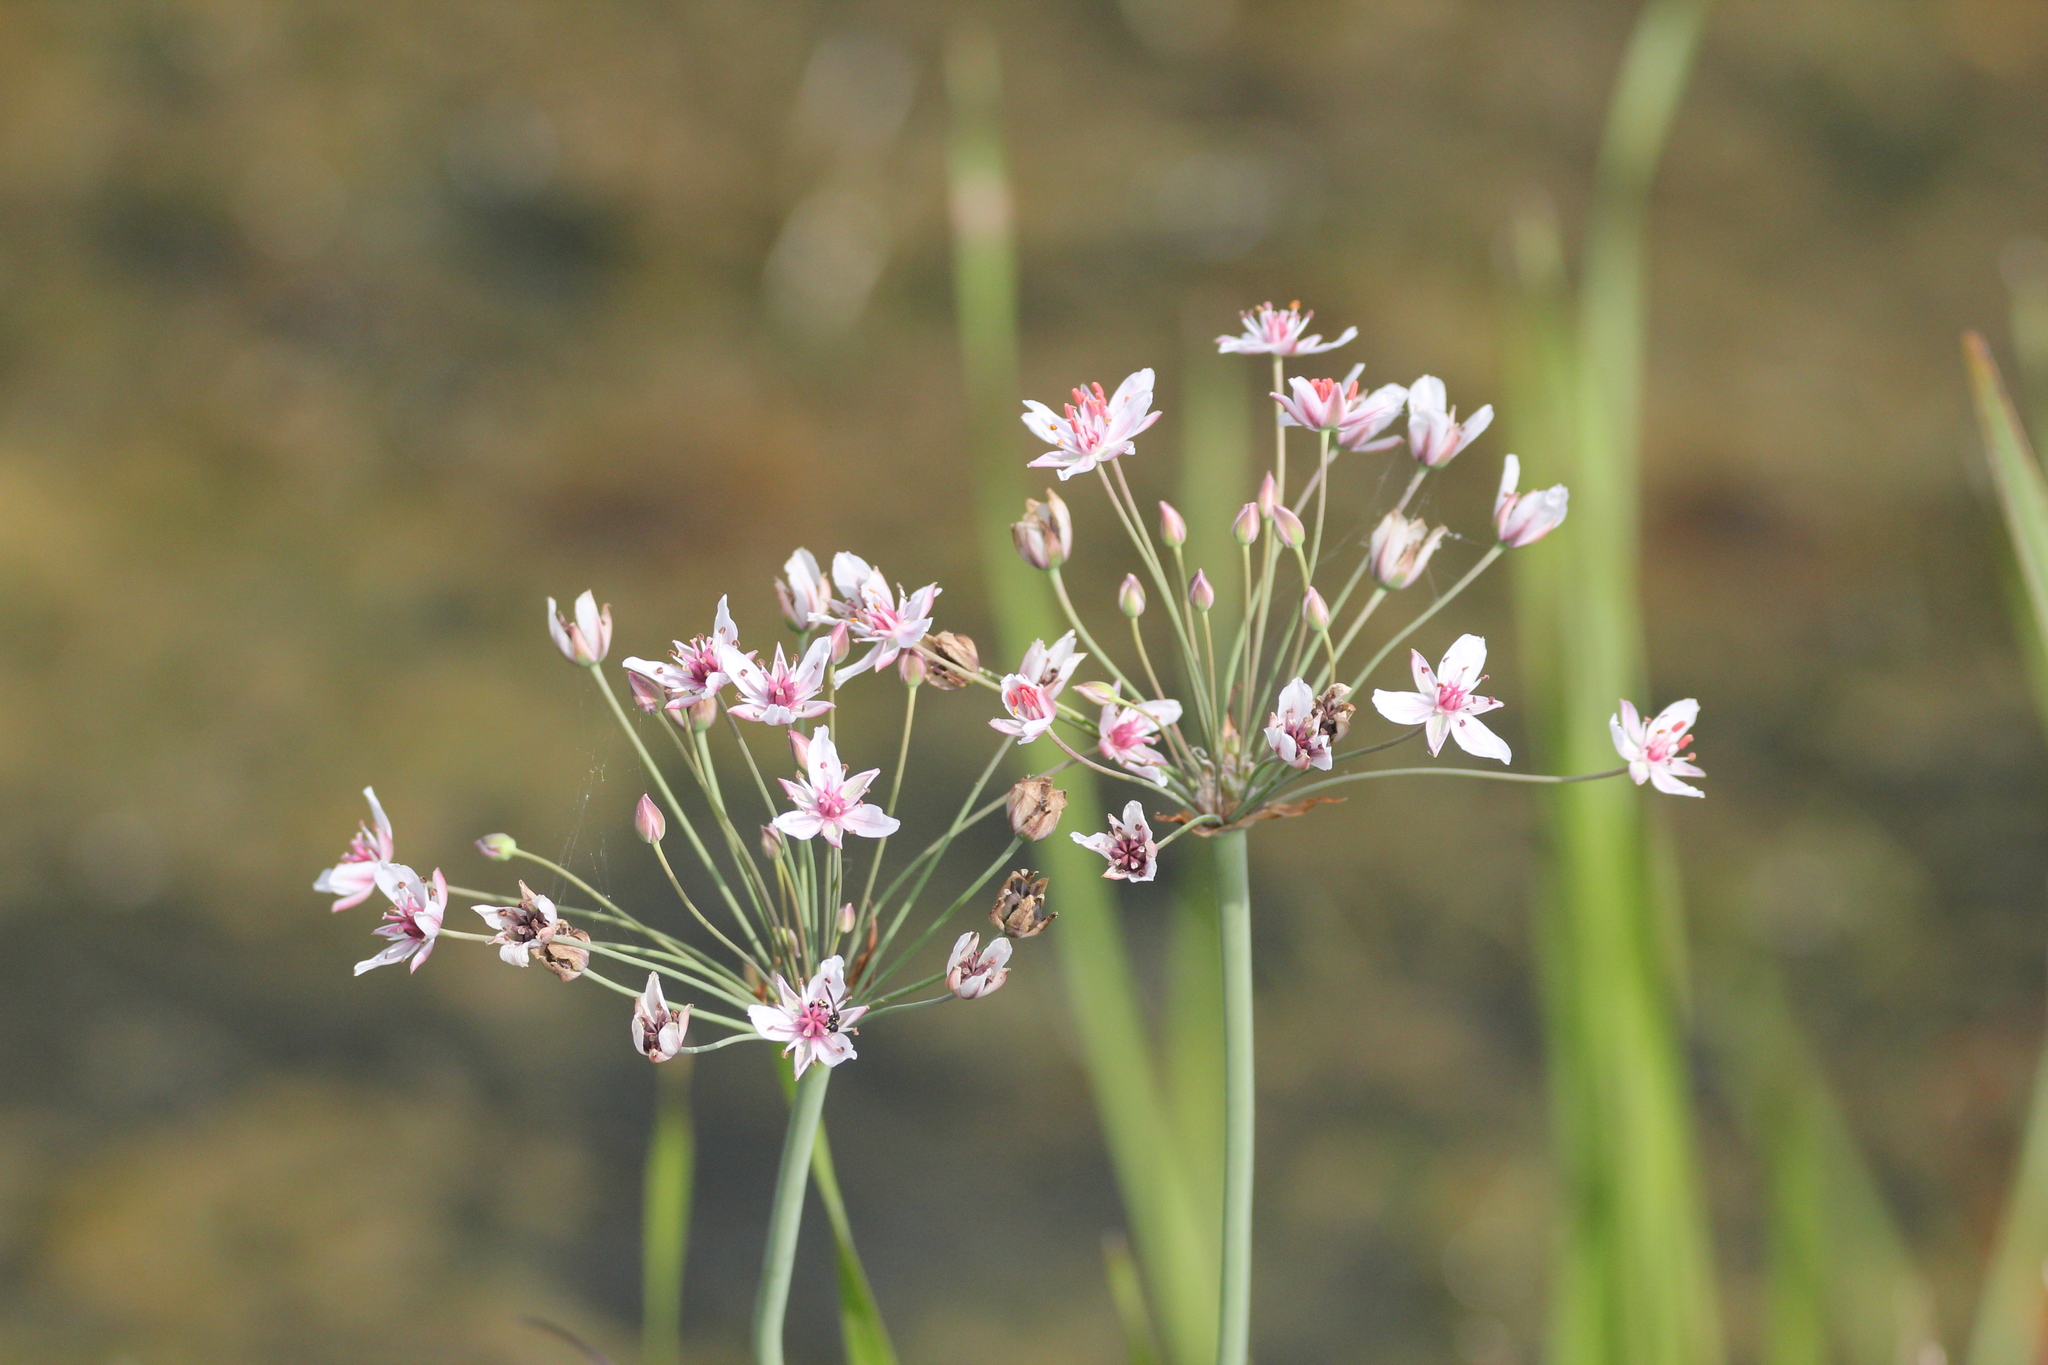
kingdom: Plantae
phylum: Tracheophyta
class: Liliopsida
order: Alismatales
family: Butomaceae
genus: Butomus
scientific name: Butomus umbellatus
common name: Flowering-rush
